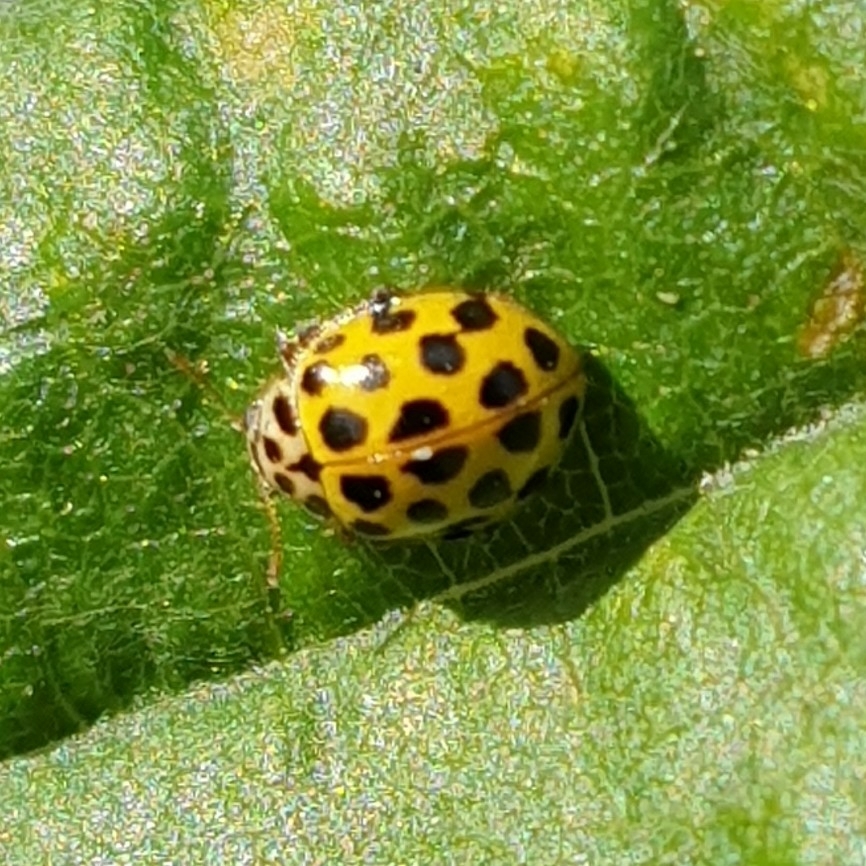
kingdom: Animalia
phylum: Arthropoda
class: Insecta
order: Coleoptera
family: Coccinellidae
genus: Psyllobora
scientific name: Psyllobora vigintiduopunctata
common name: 22-spot ladybird
